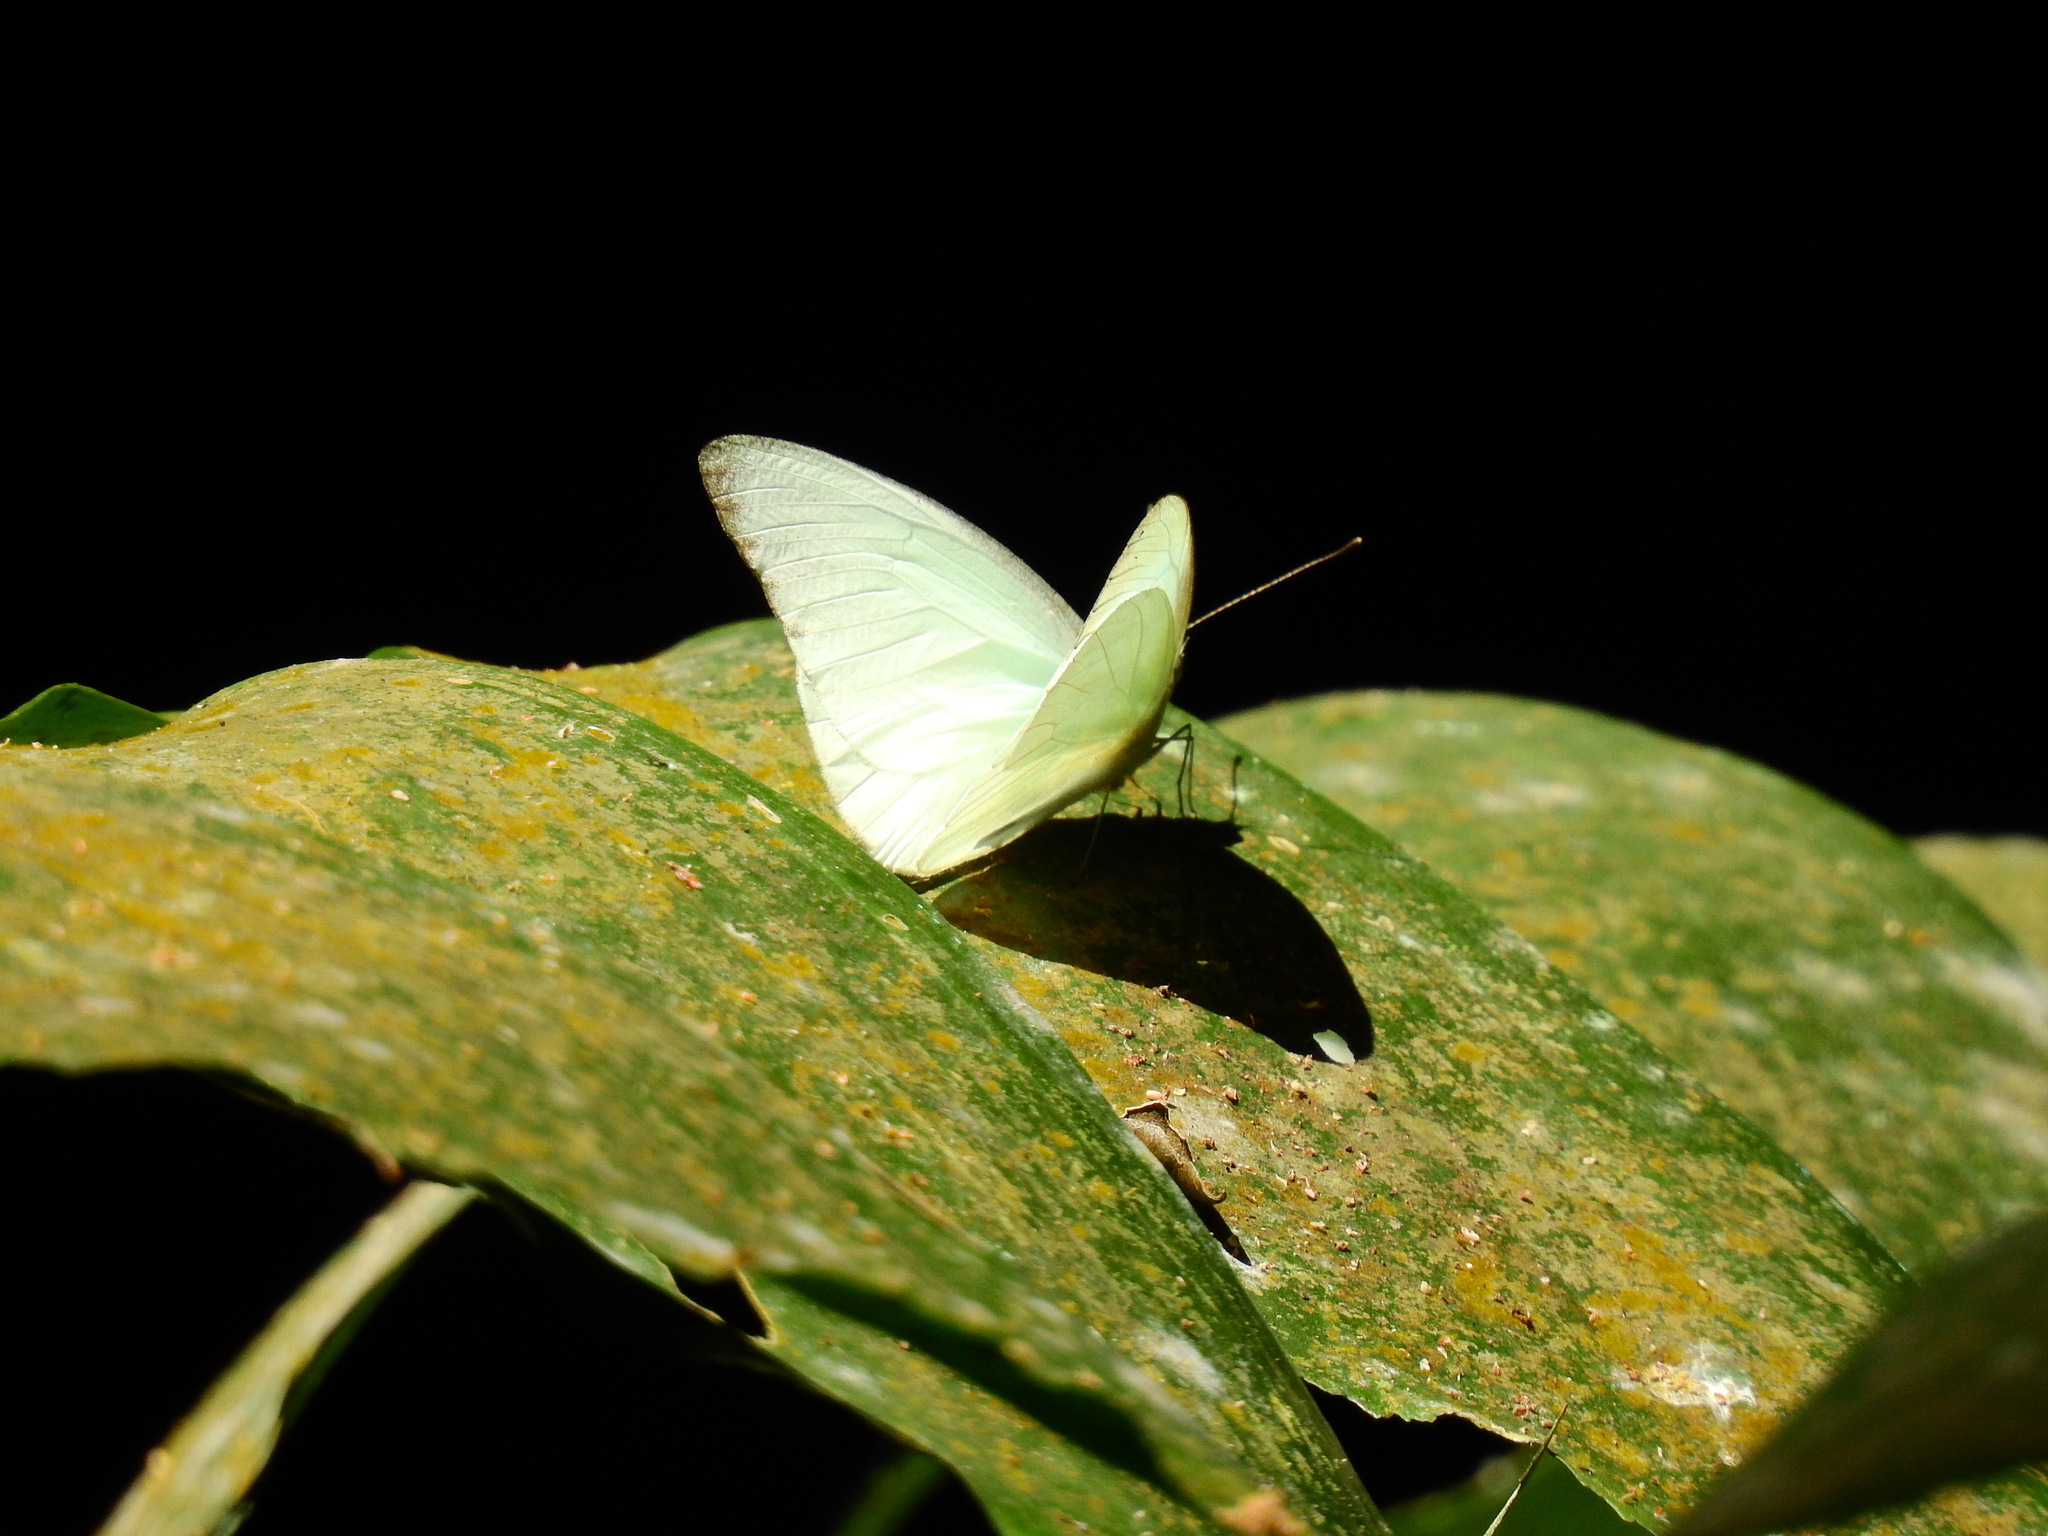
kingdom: Animalia
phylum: Arthropoda
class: Insecta
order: Lepidoptera
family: Pieridae
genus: Appias
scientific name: Appias albina
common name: Common albatross
